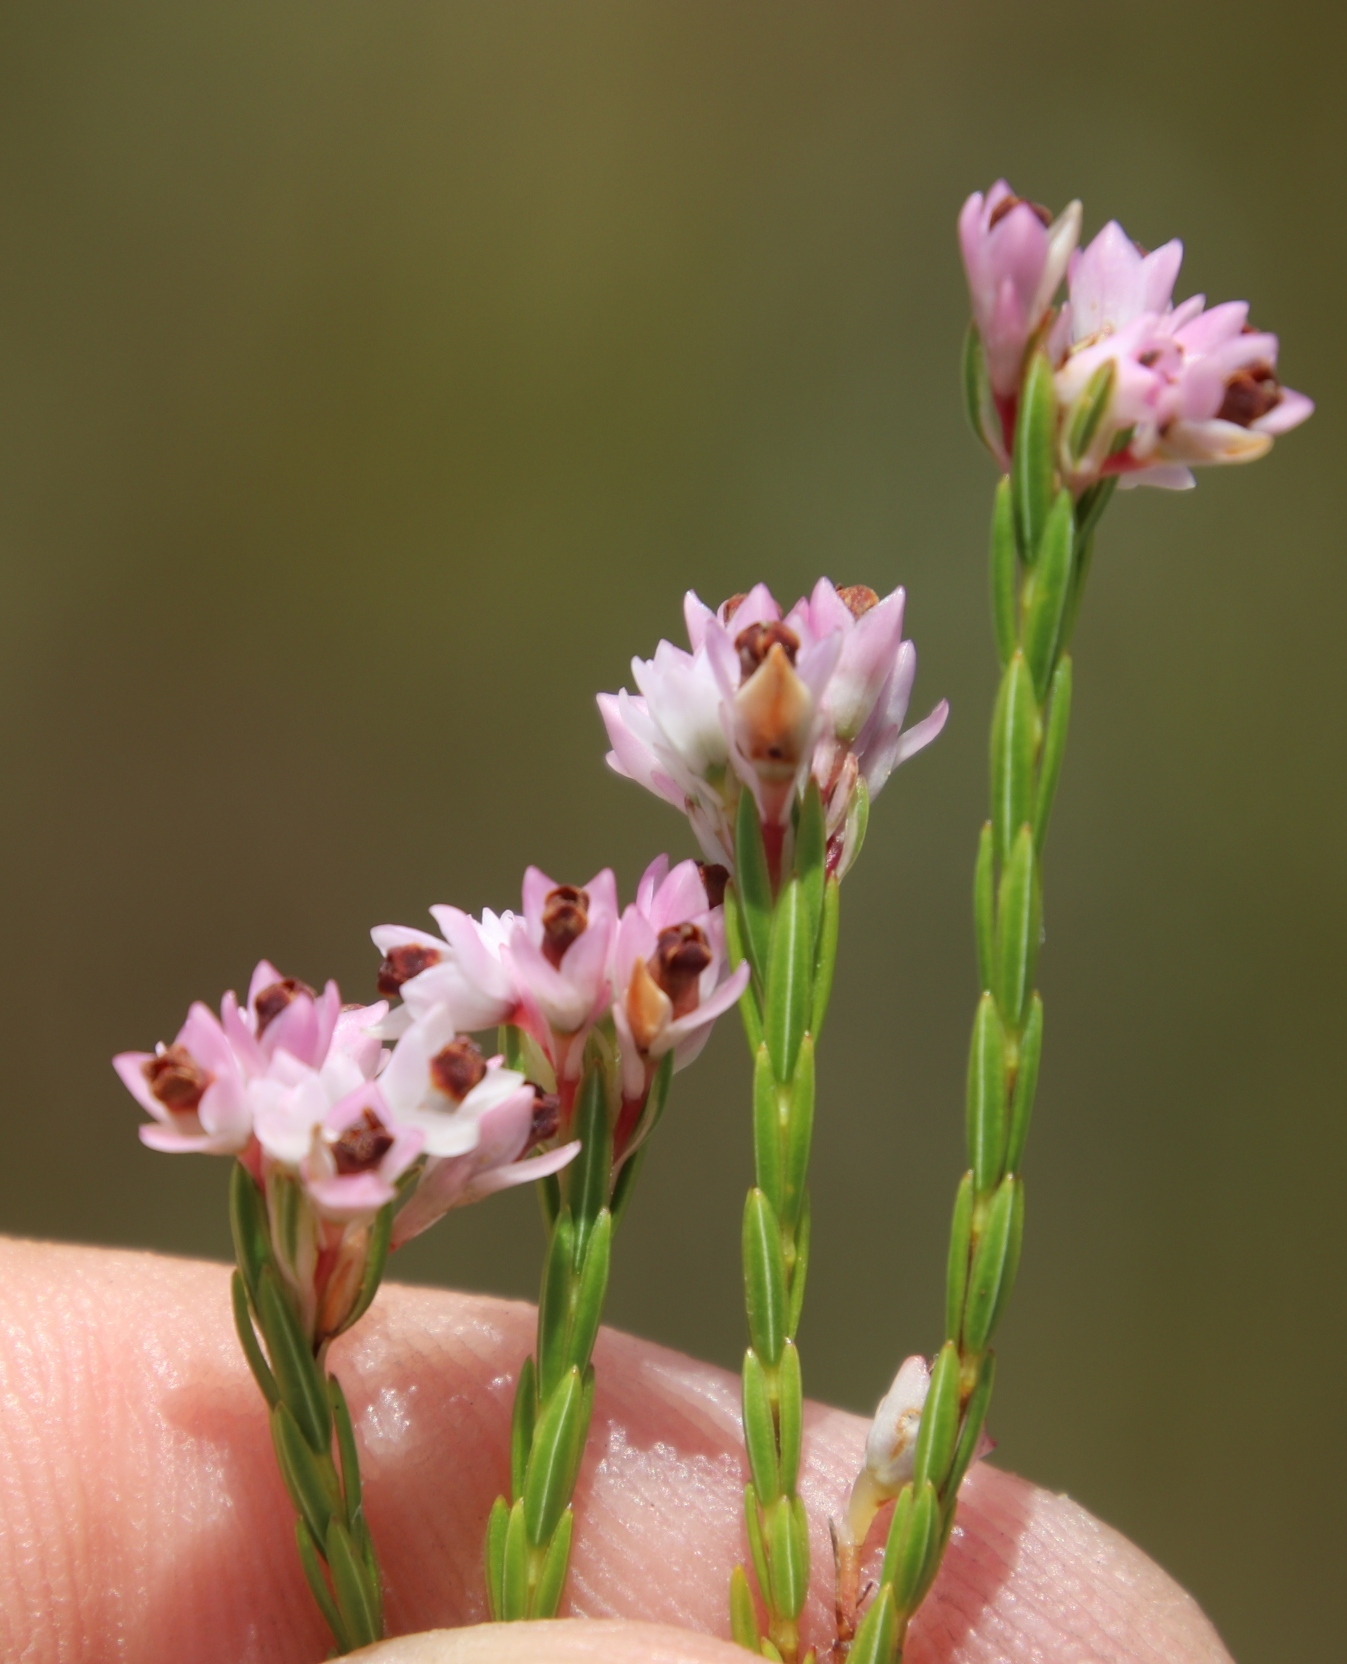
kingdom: Plantae
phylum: Tracheophyta
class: Magnoliopsida
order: Ericales
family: Ericaceae
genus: Erica
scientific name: Erica corifolia
